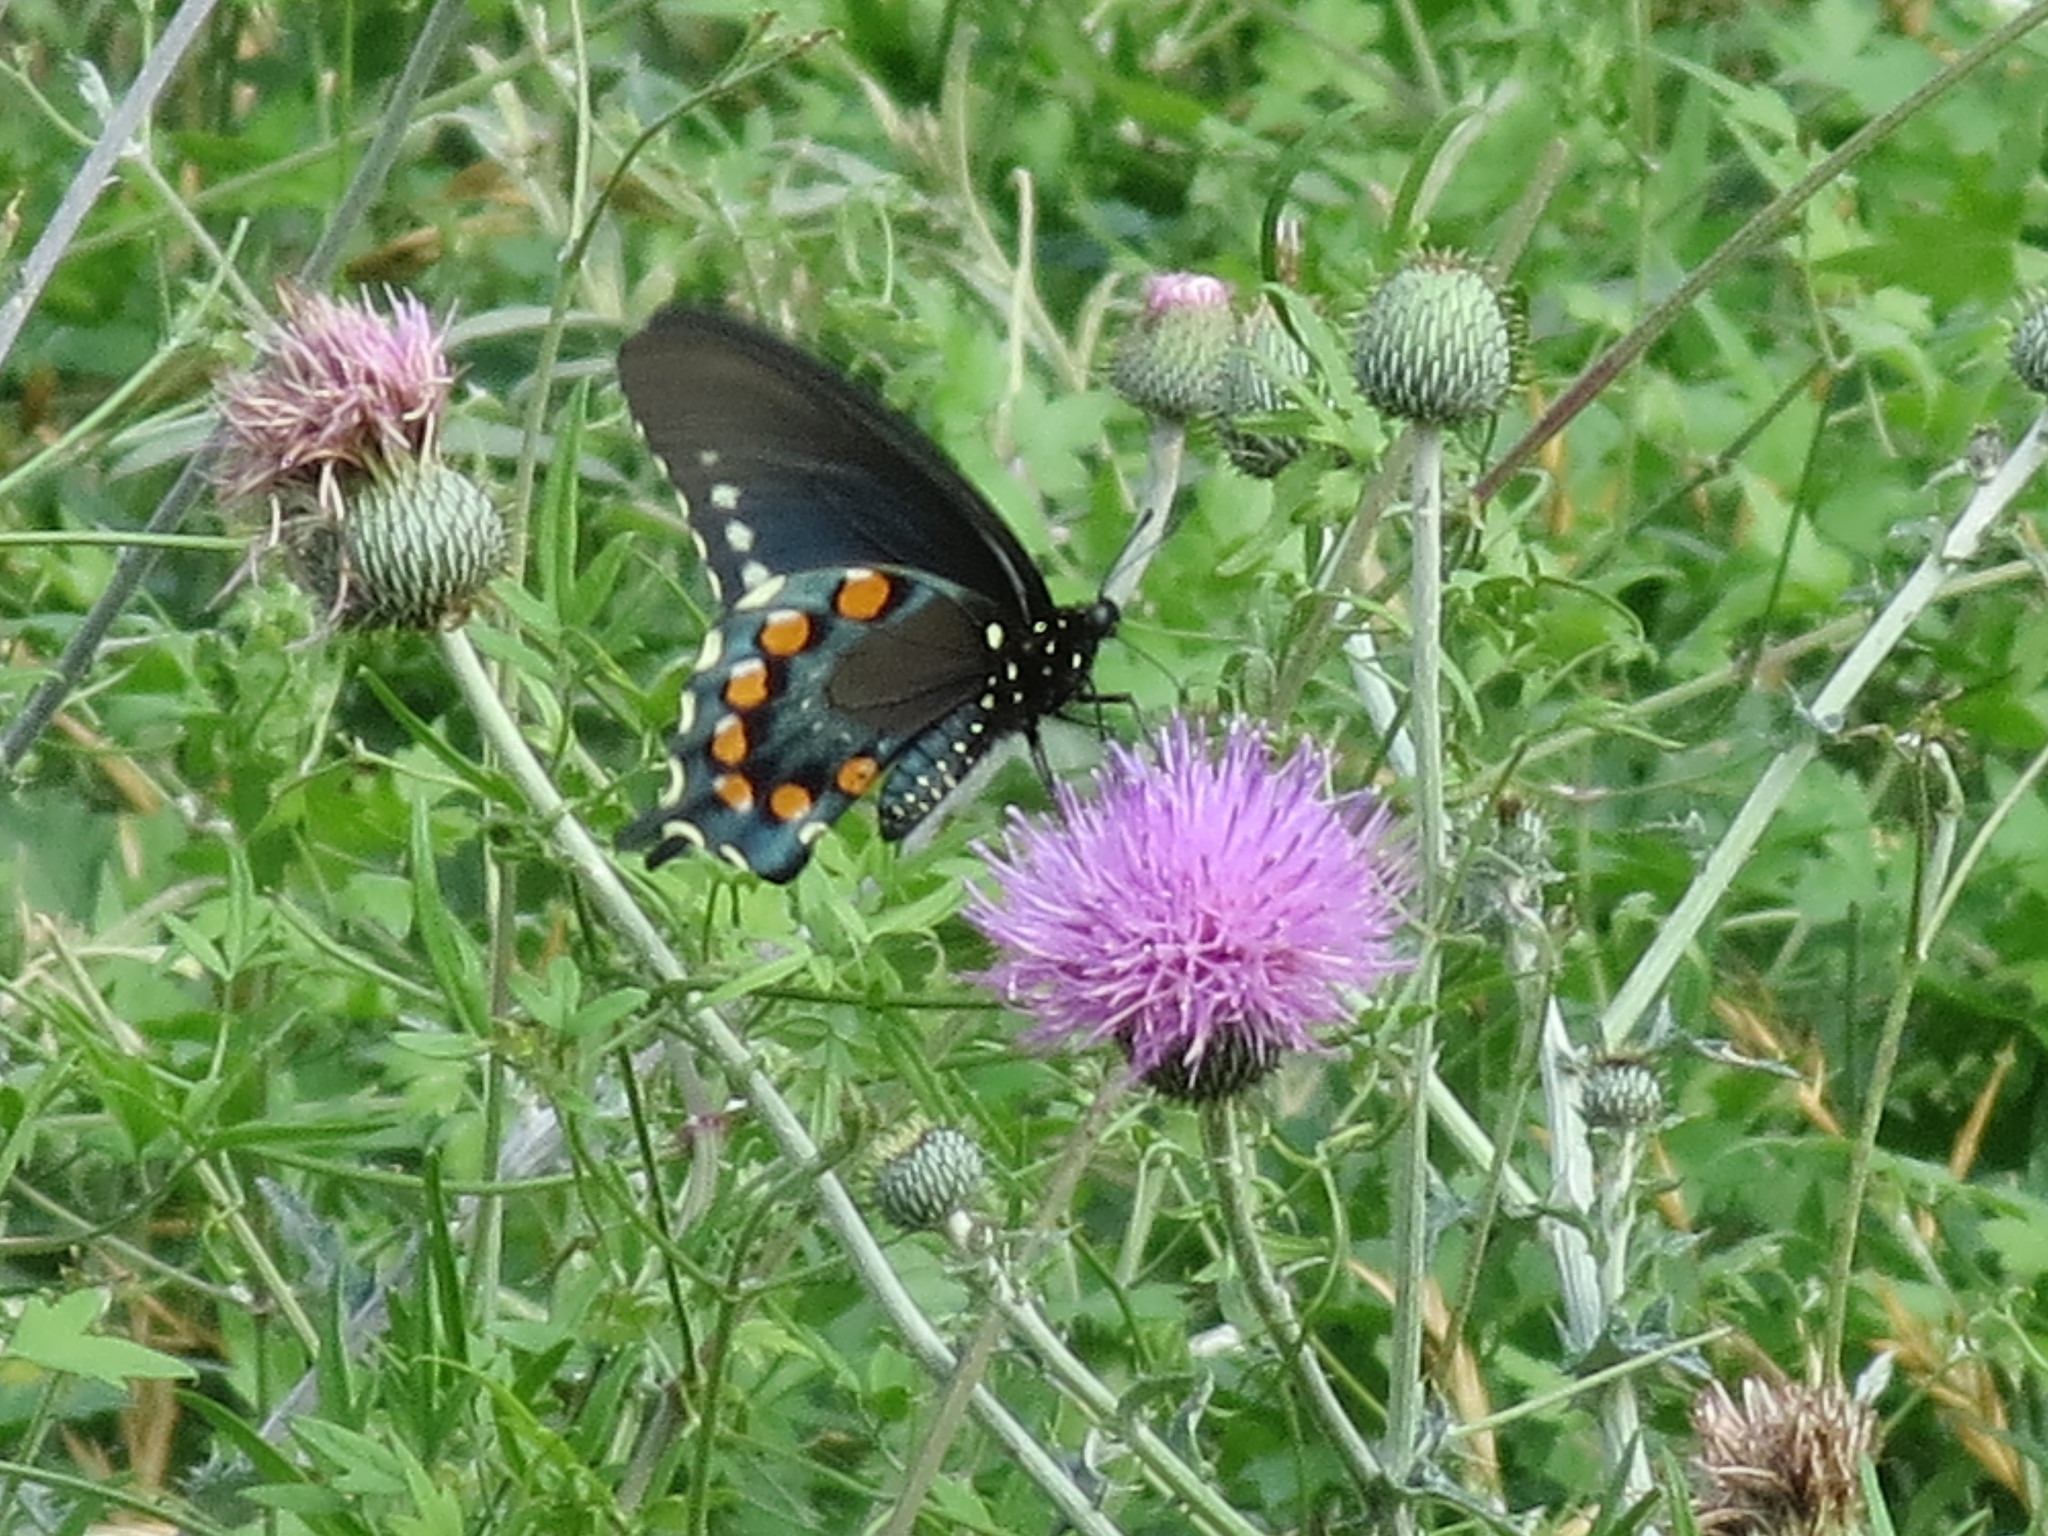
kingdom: Animalia
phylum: Arthropoda
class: Insecta
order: Lepidoptera
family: Papilionidae
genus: Battus
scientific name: Battus philenor
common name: Pipevine swallowtail
